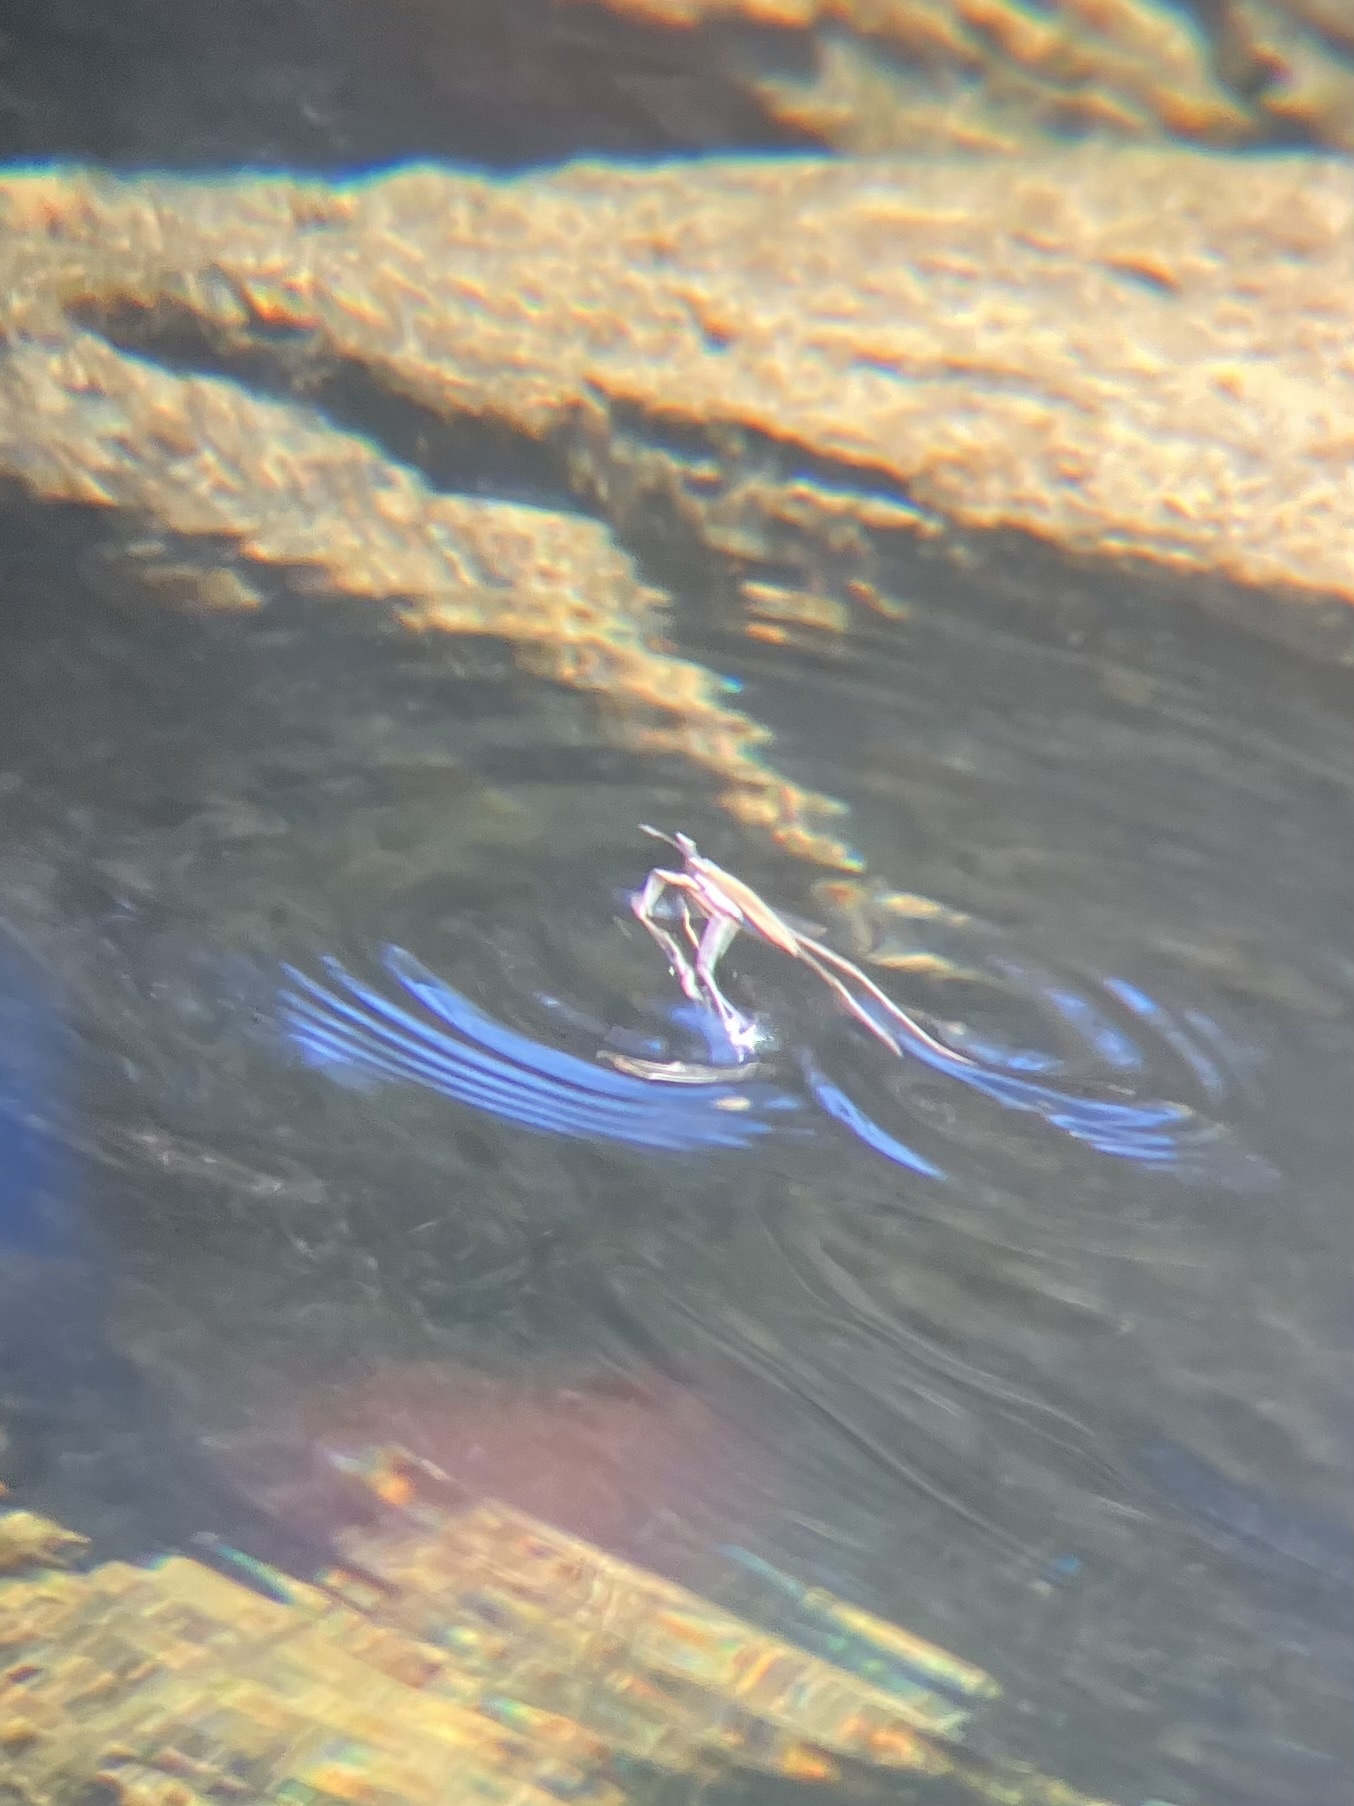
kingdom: Animalia
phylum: Arthropoda
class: Insecta
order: Hemiptera
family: Gerridae
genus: Aquarius
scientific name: Aquarius remigis
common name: Common water strider
